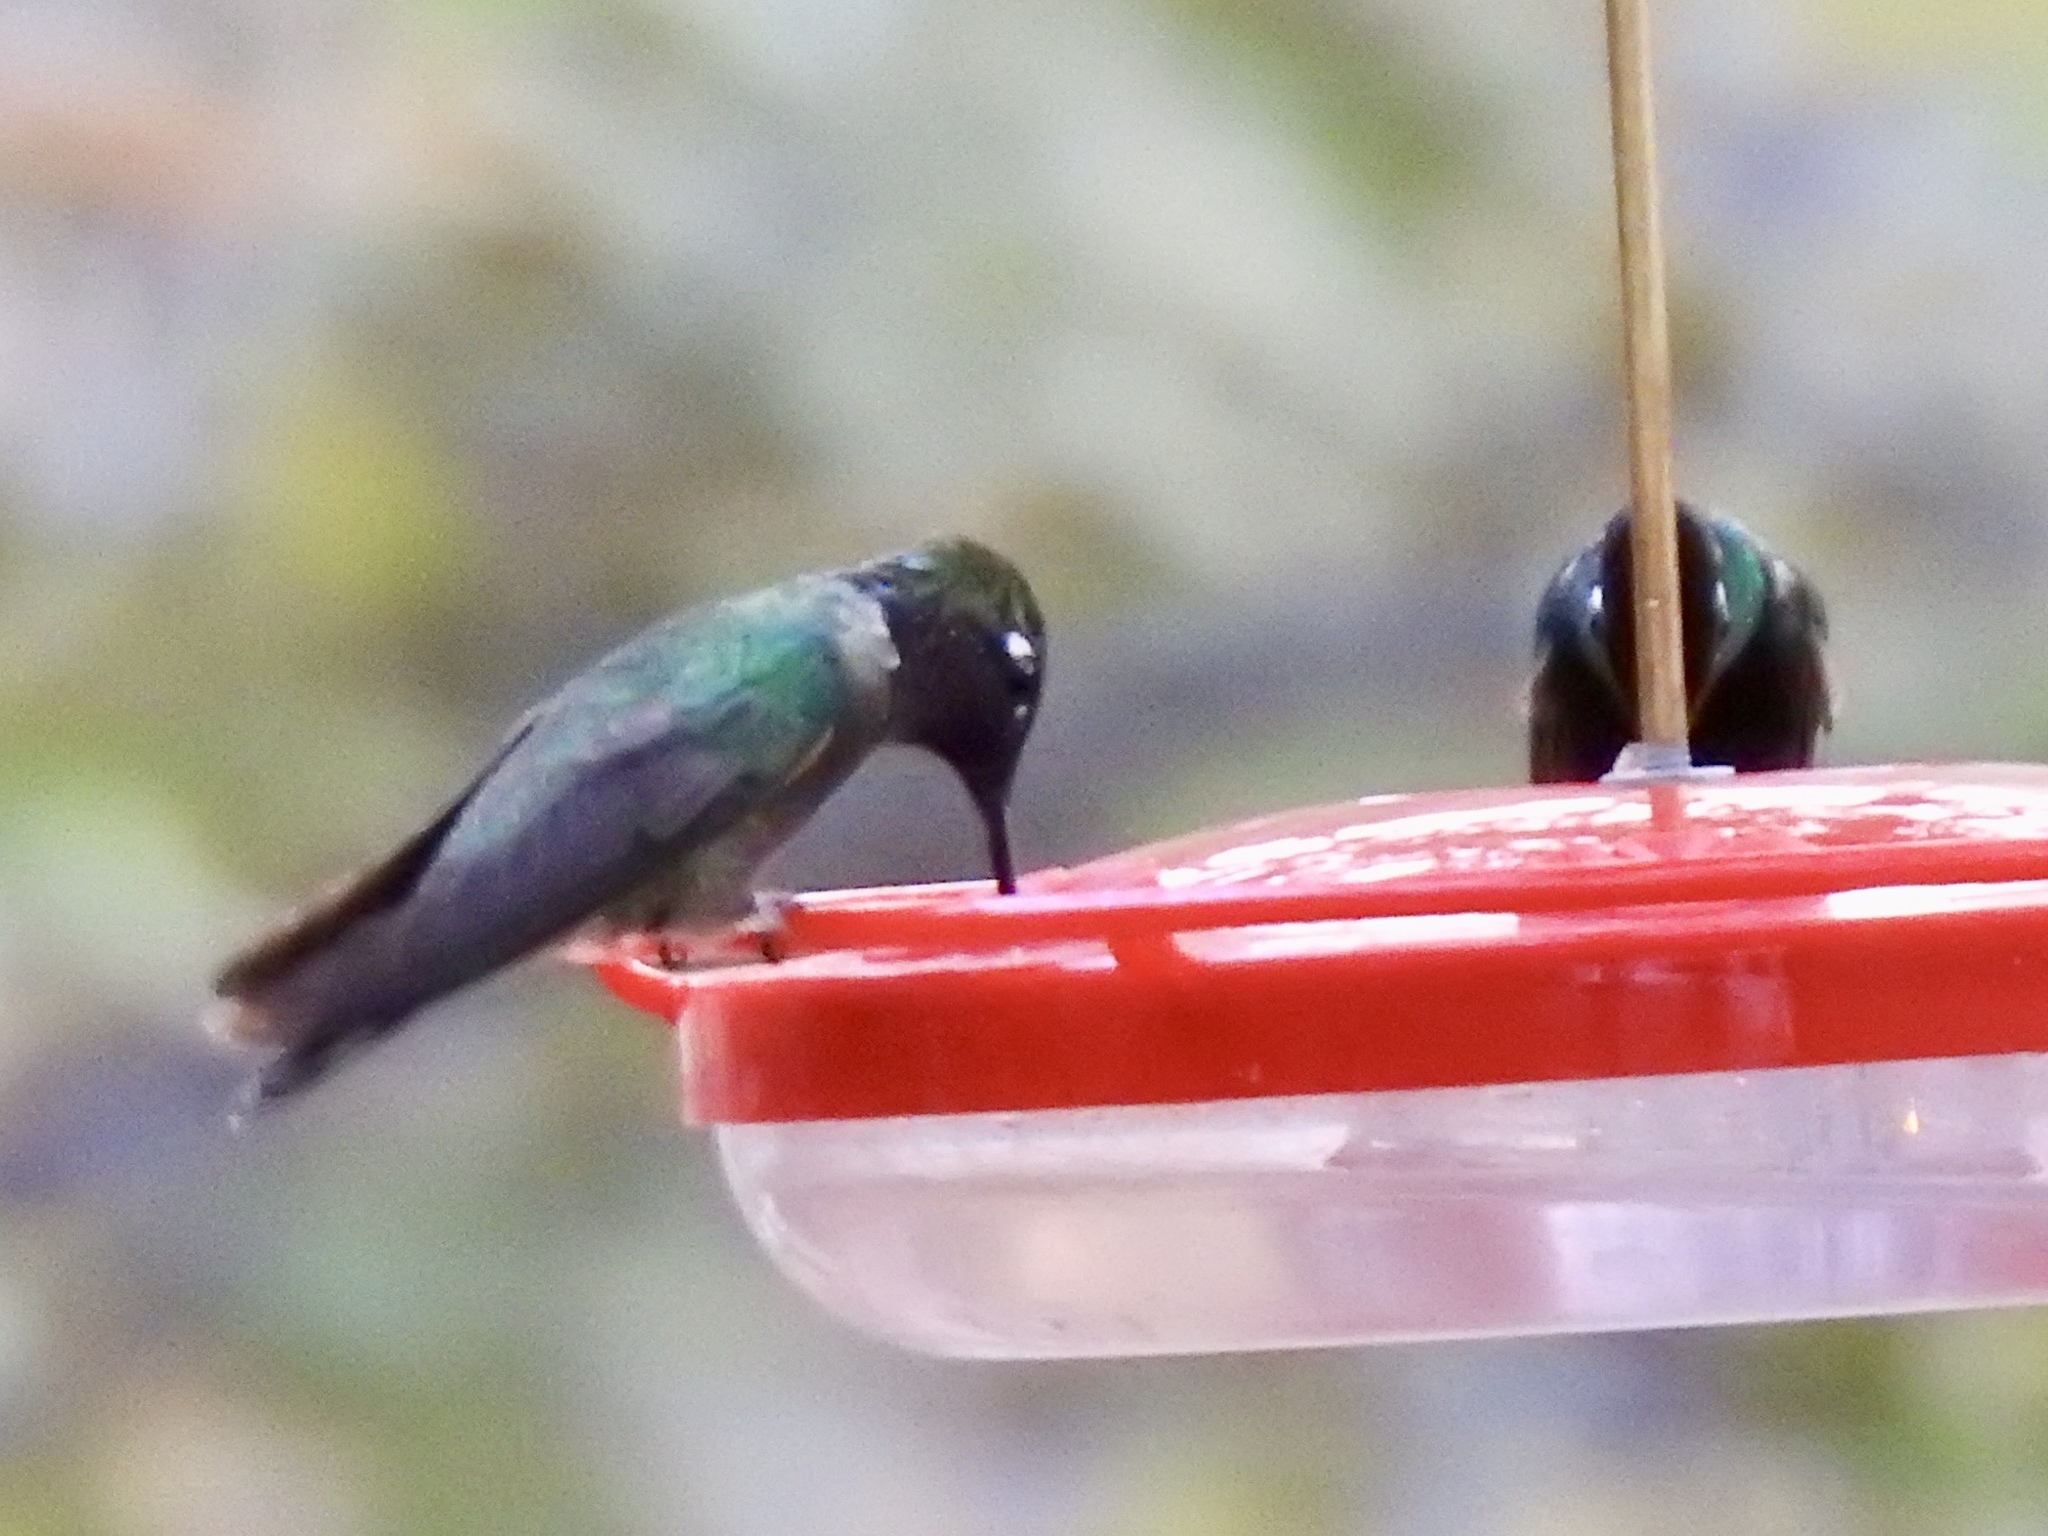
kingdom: Animalia
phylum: Chordata
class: Aves
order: Apodiformes
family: Trochilidae
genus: Eugenes
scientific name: Eugenes fulgens
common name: Magnificent hummingbird
